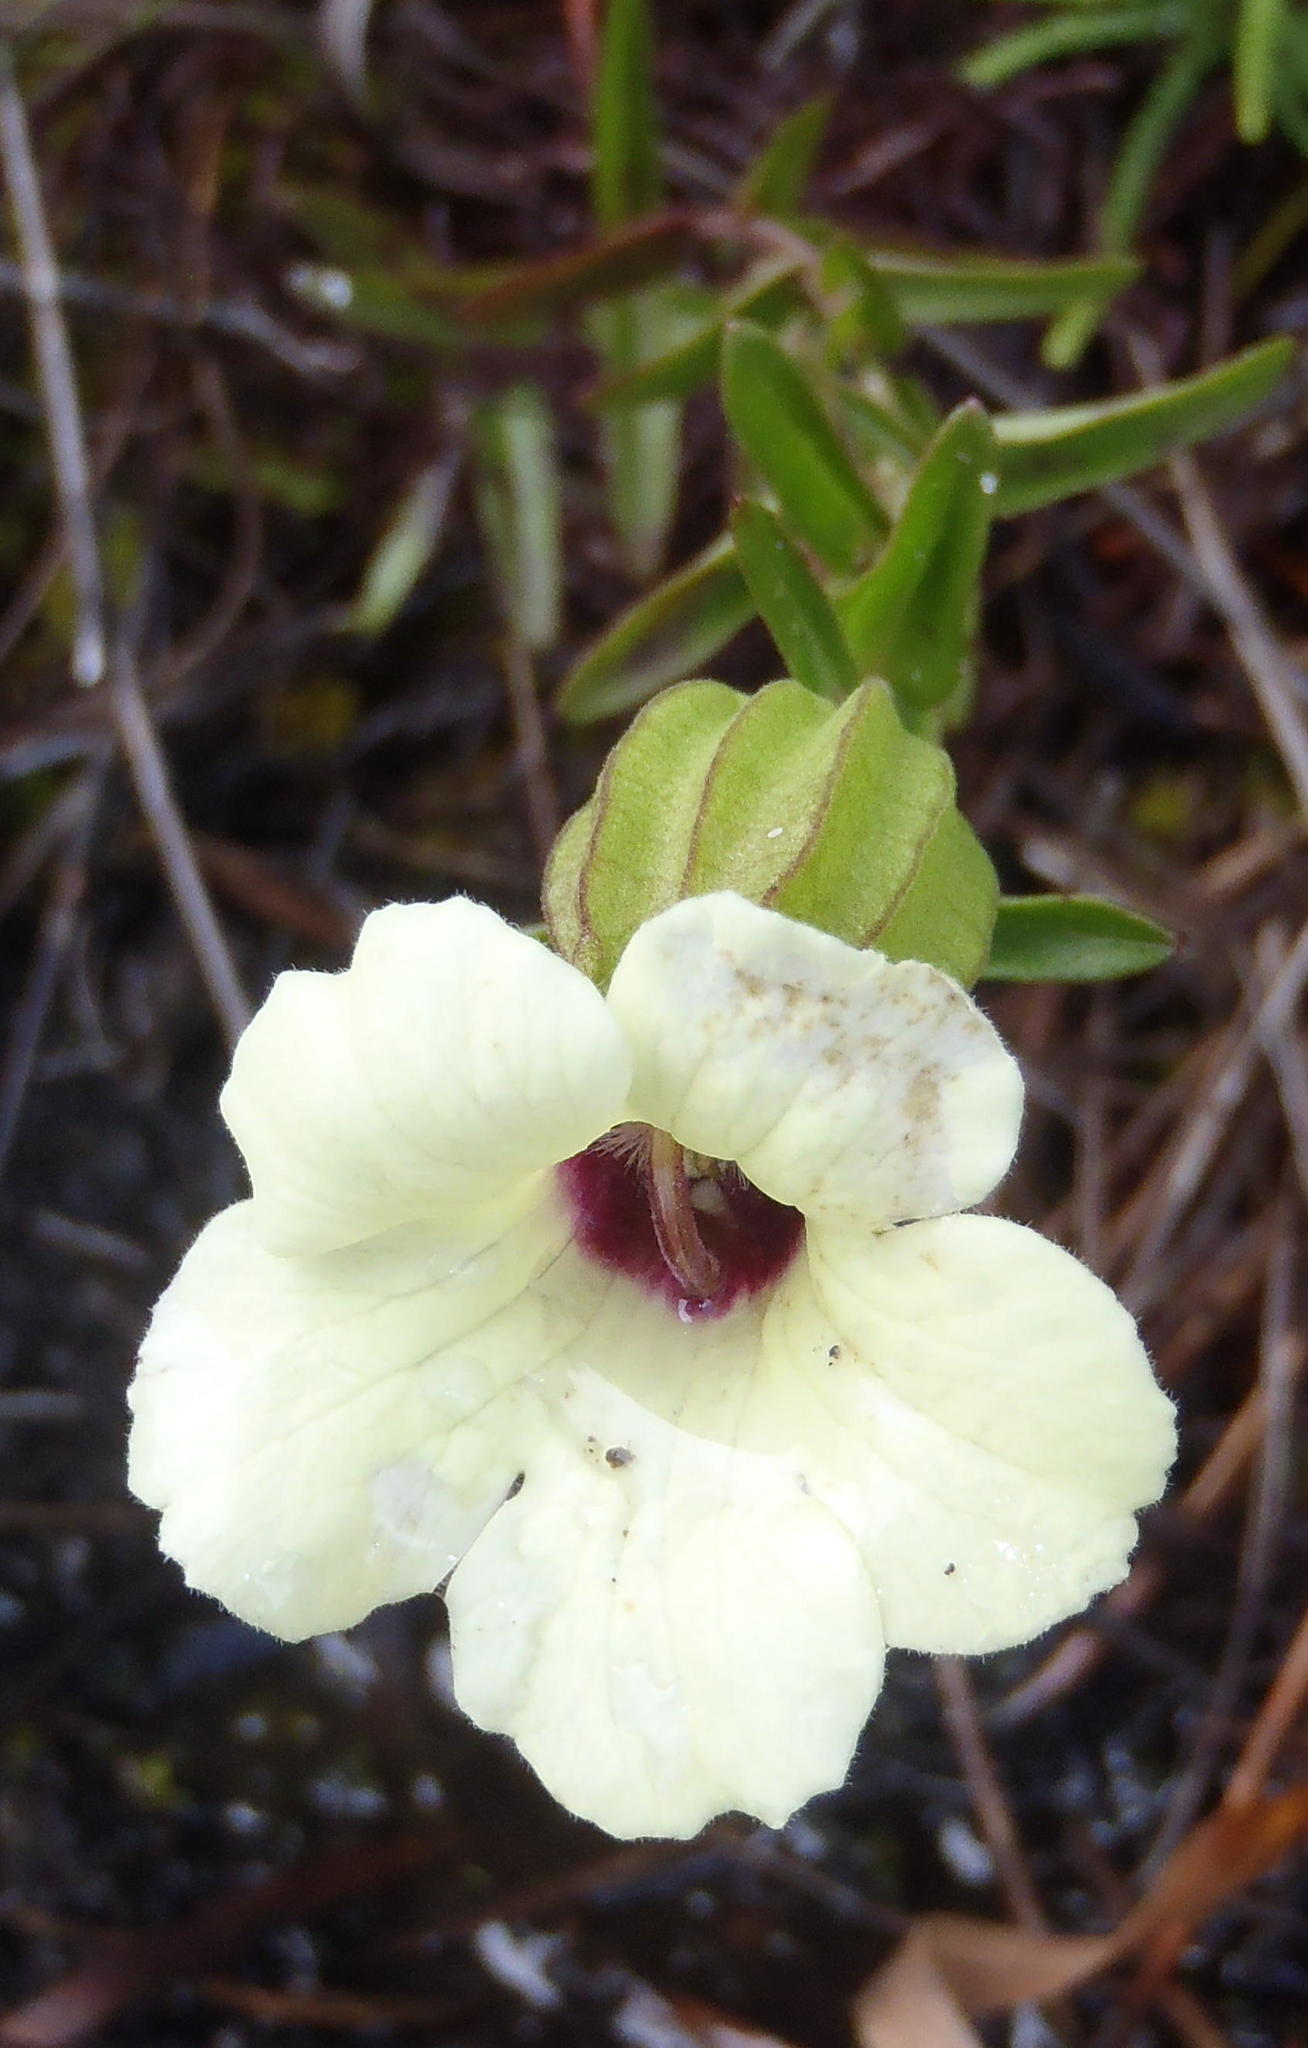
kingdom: Plantae
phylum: Tracheophyta
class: Magnoliopsida
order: Lamiales
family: Orobanchaceae
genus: Melasma
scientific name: Melasma scabrum
